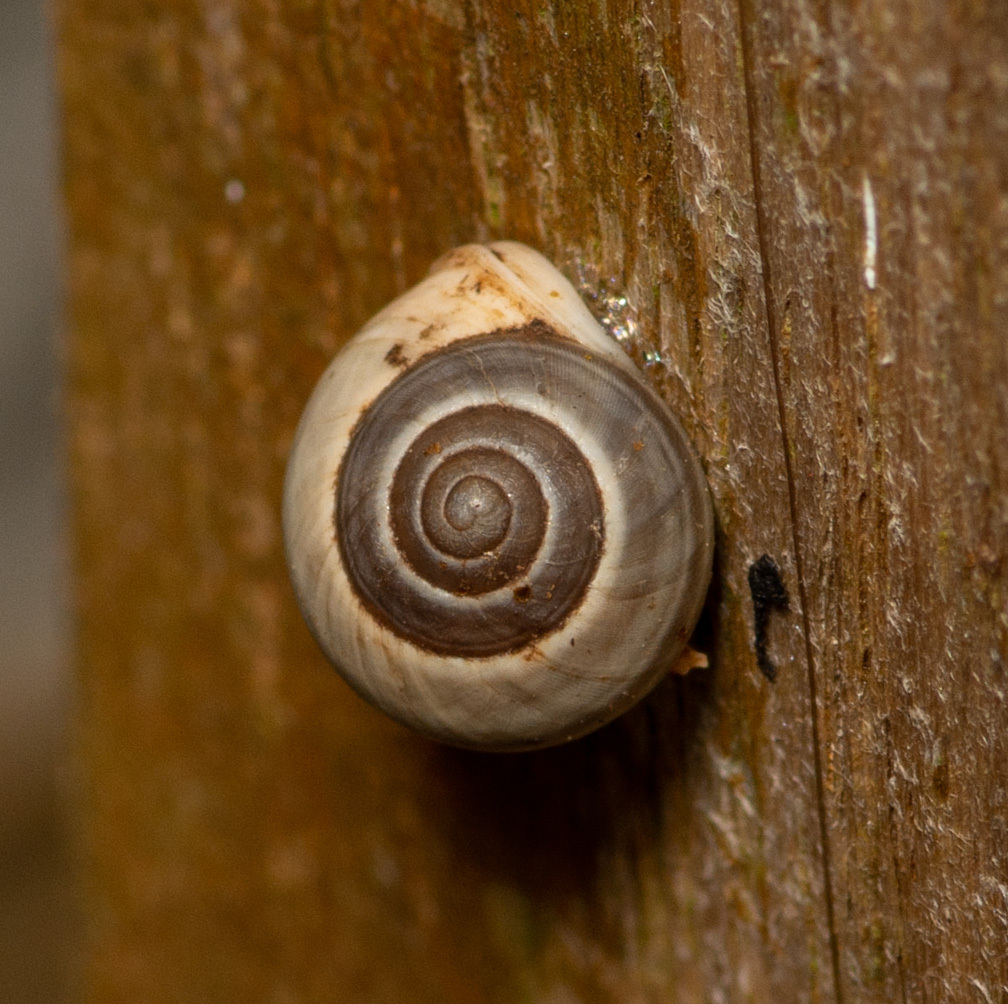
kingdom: Animalia
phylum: Mollusca
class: Gastropoda
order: Cycloneritida
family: Helicinidae
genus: Helicina
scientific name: Helicina orbiculata
